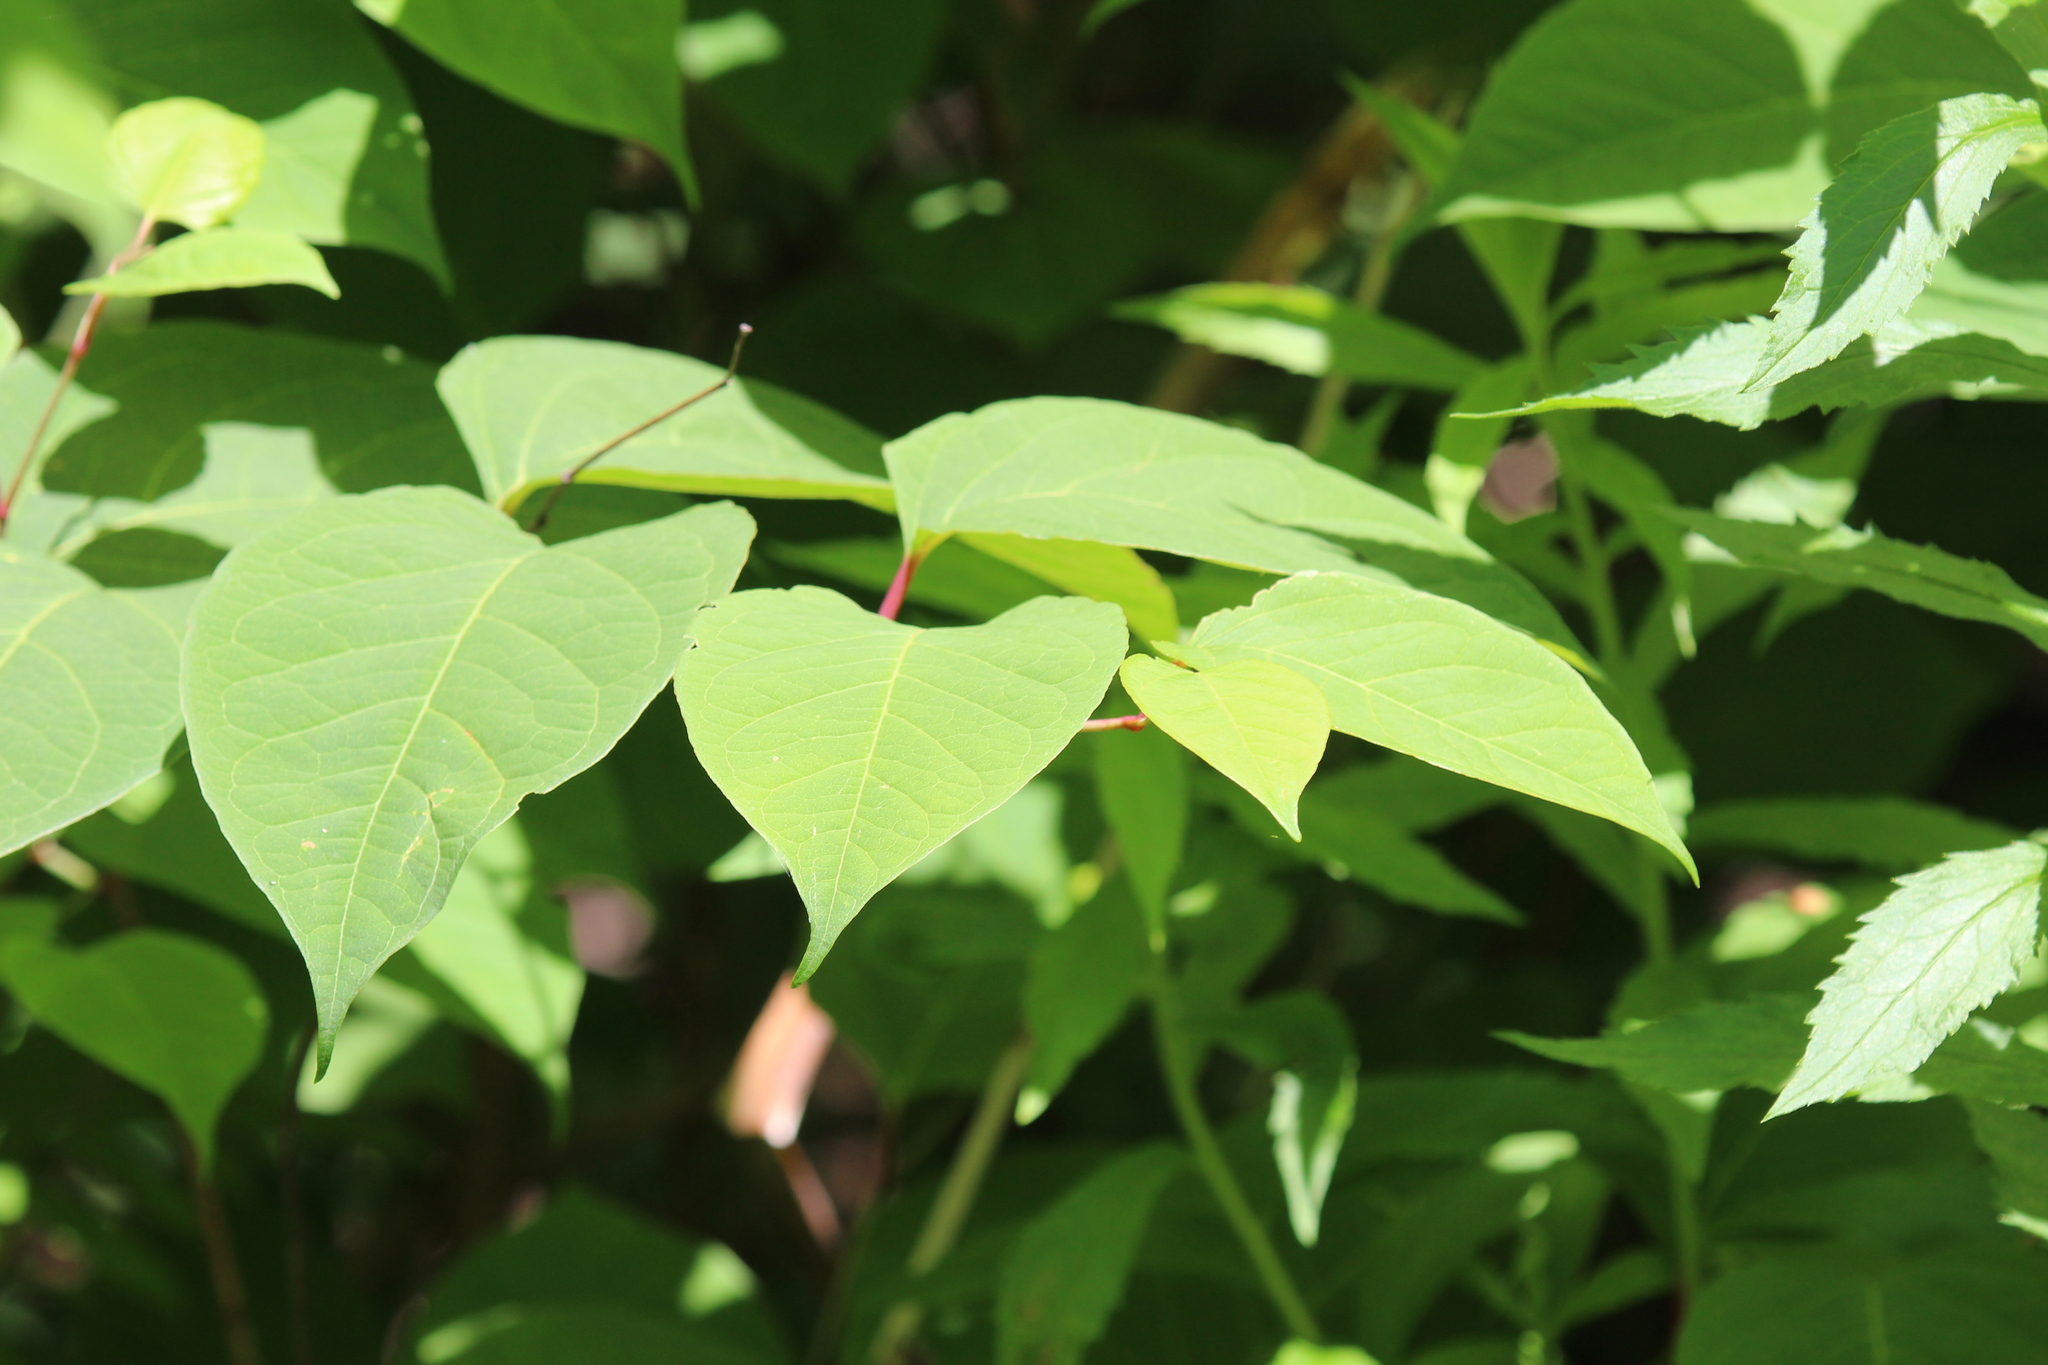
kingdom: Plantae
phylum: Tracheophyta
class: Magnoliopsida
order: Caryophyllales
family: Polygonaceae
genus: Reynoutria
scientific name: Reynoutria japonica
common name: Japanese knotweed
